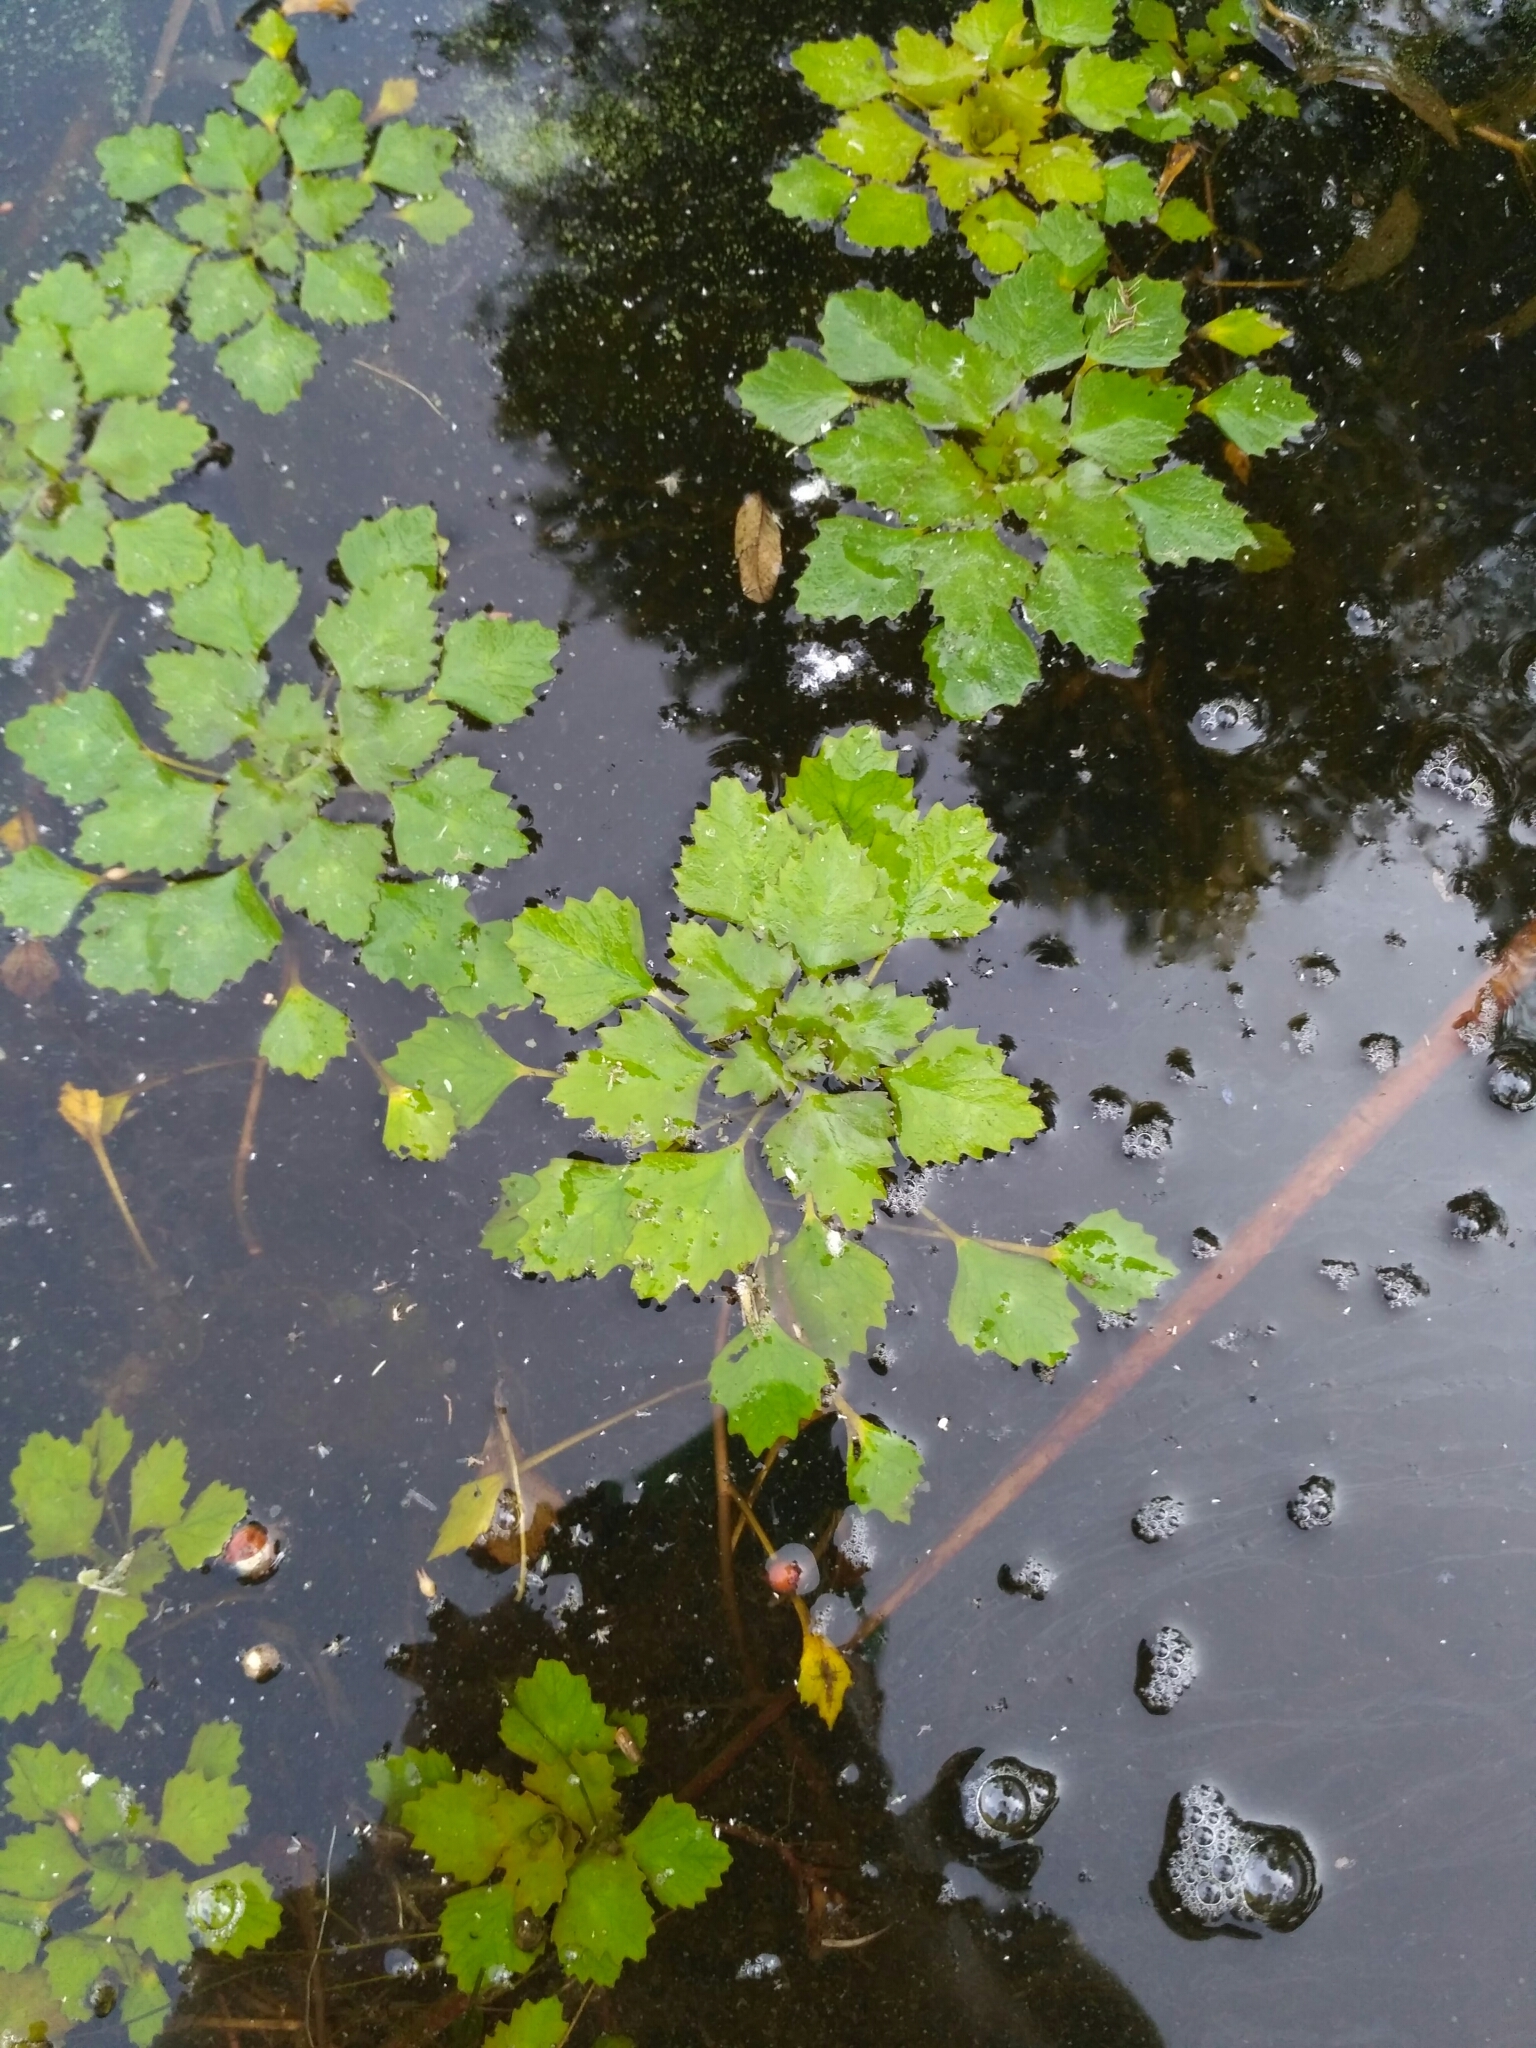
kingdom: Plantae
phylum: Tracheophyta
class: Magnoliopsida
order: Myrtales
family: Lythraceae
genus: Trapa
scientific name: Trapa natans
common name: Water chestnut
